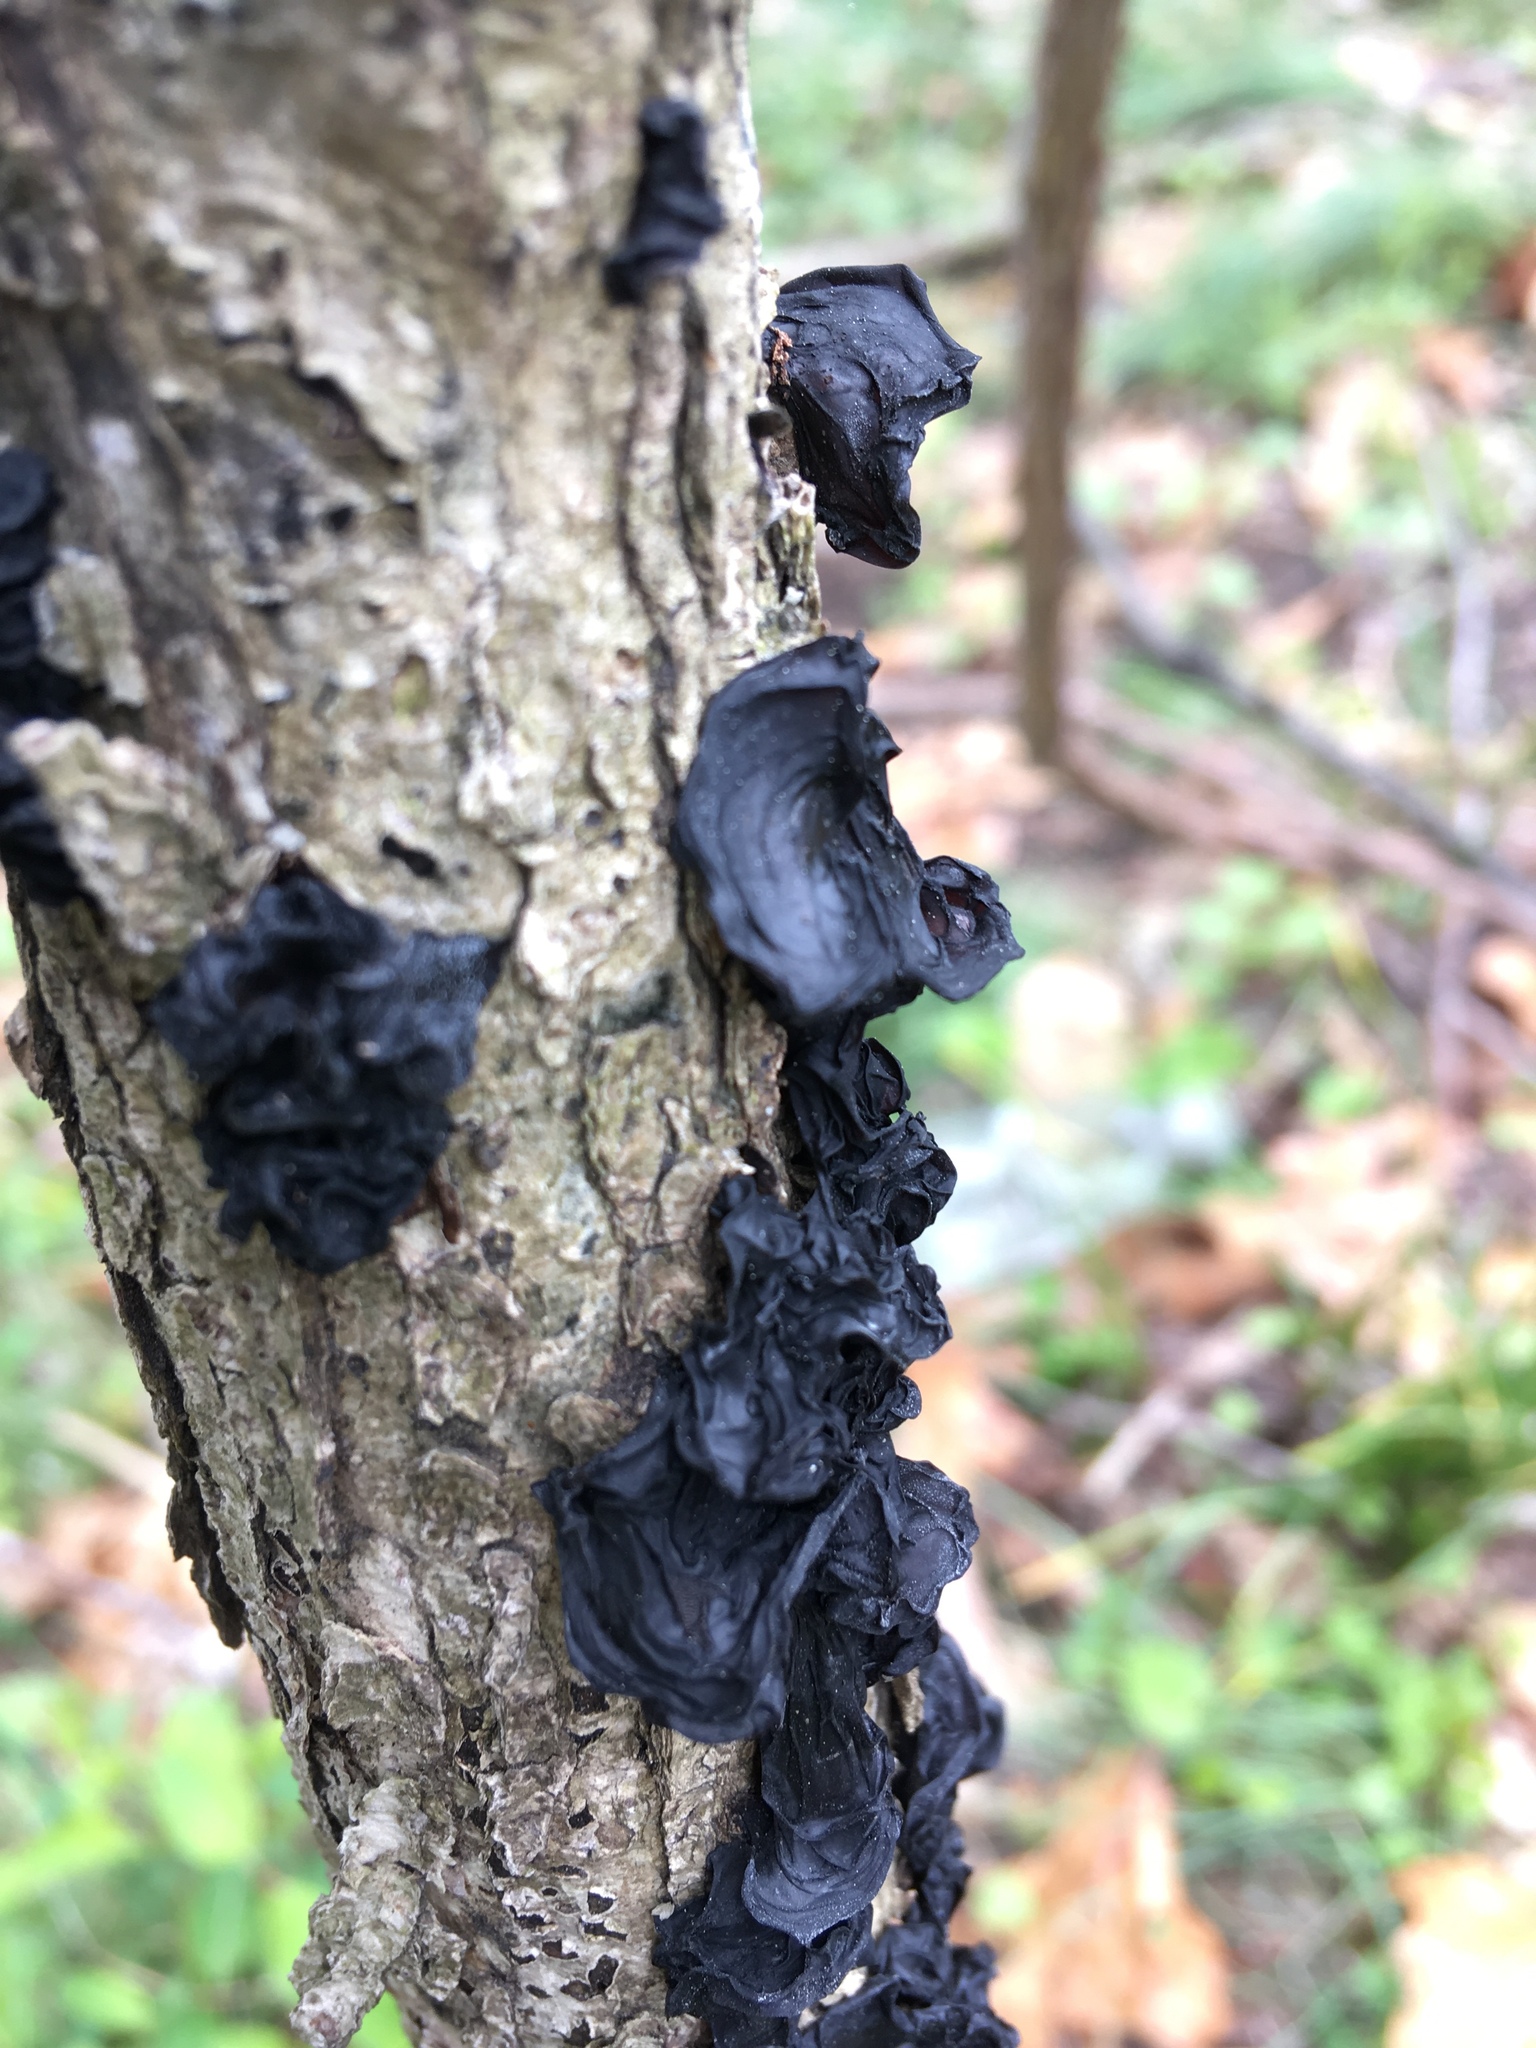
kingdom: Fungi
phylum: Basidiomycota
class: Agaricomycetes
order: Auriculariales
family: Auriculariaceae
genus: Exidia
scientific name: Exidia
